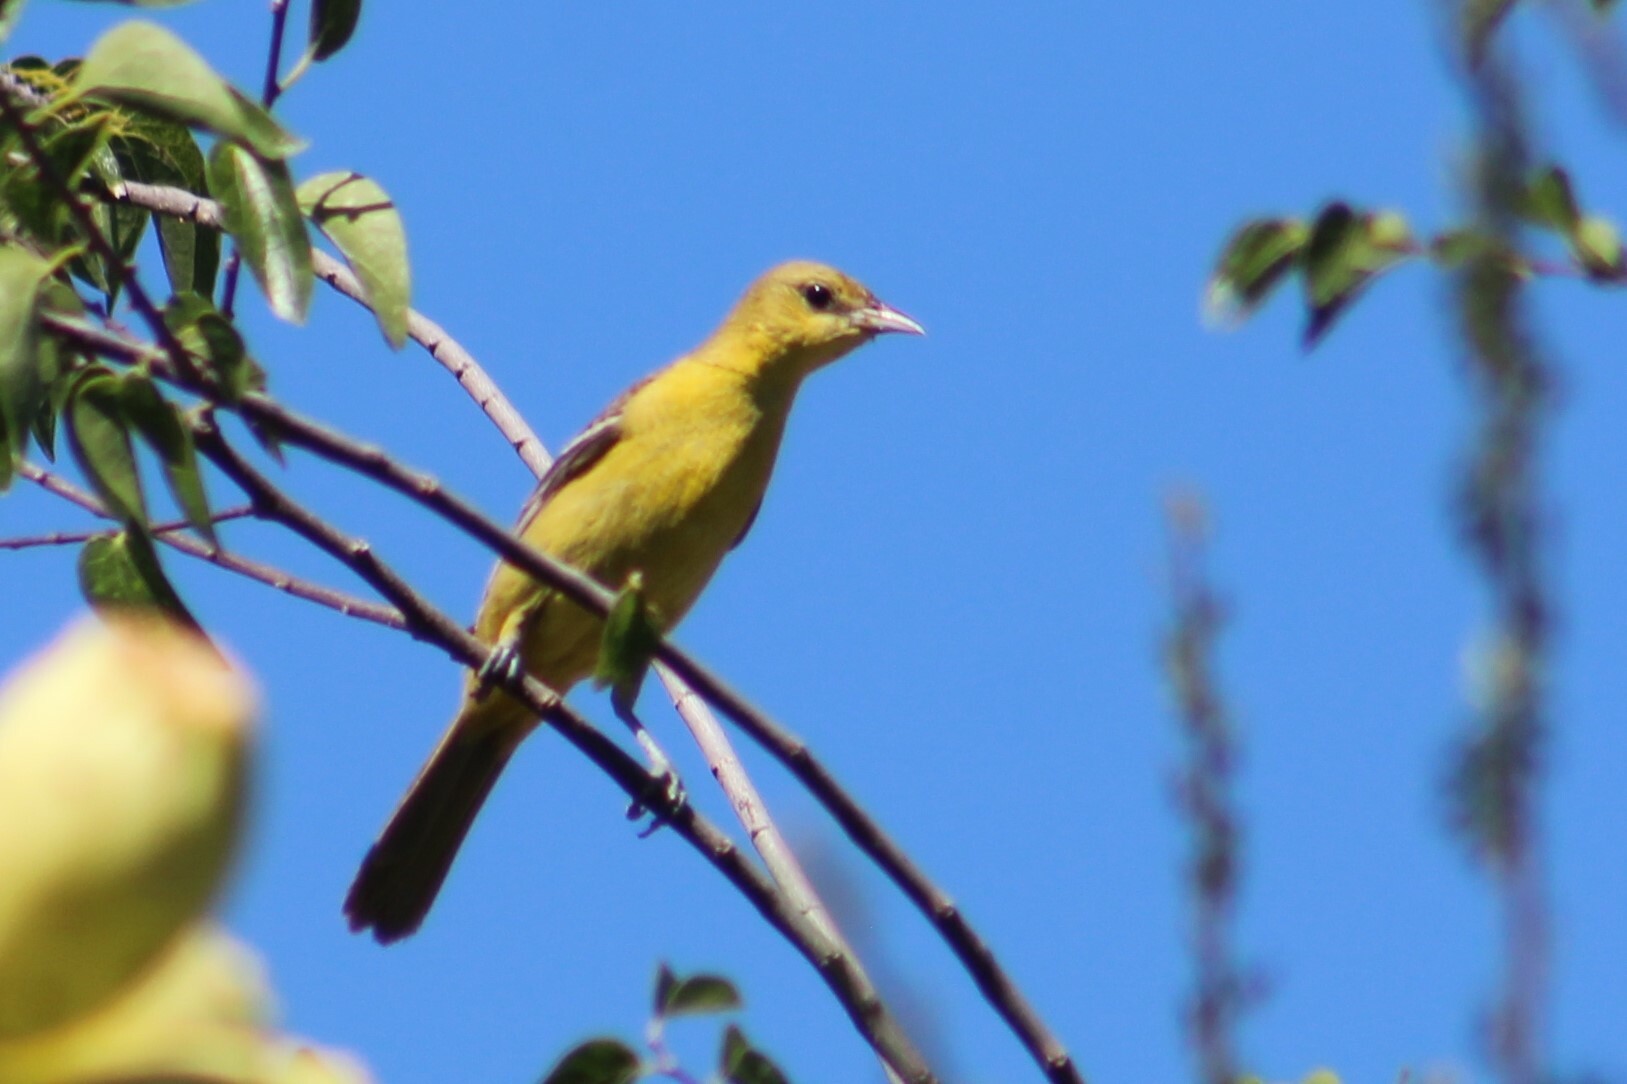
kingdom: Animalia
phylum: Chordata
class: Aves
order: Passeriformes
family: Icteridae
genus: Icterus
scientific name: Icterus spurius
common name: Orchard oriole
